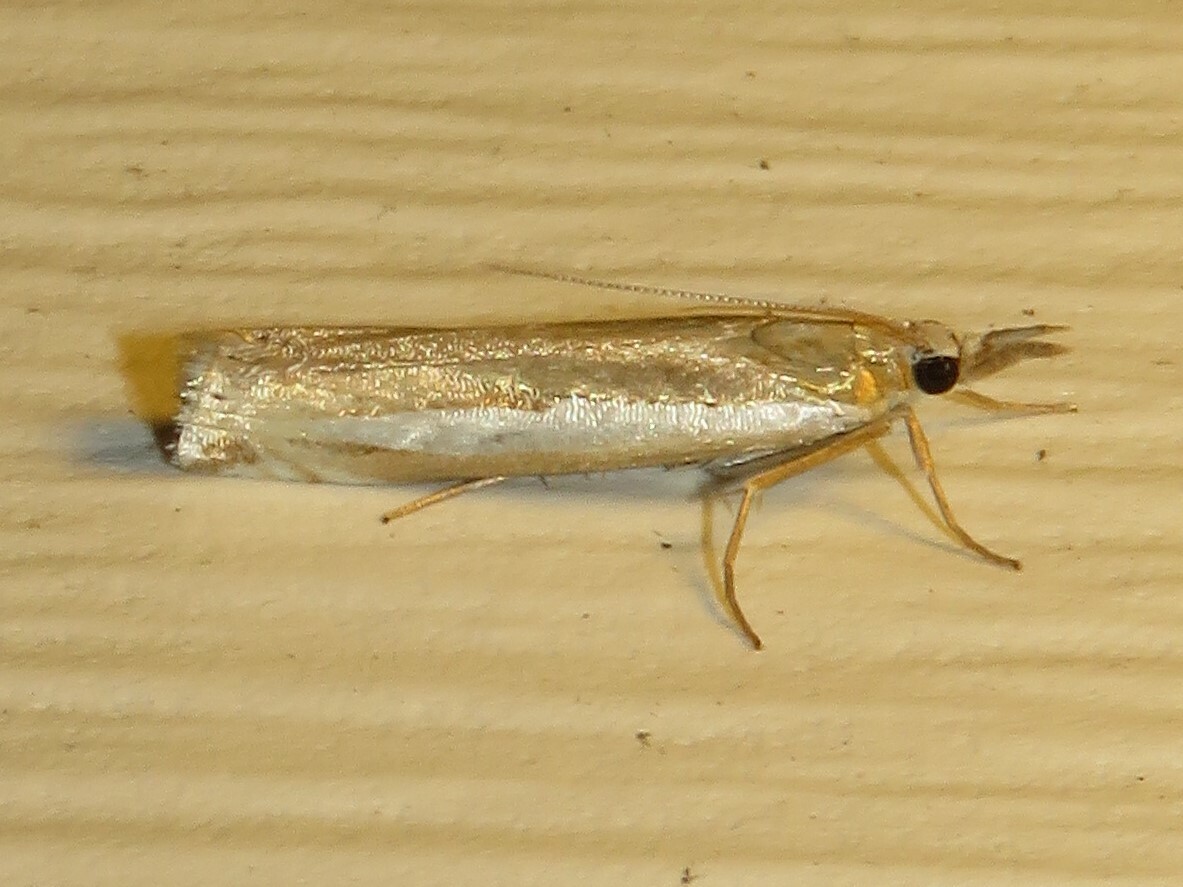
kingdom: Animalia
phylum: Arthropoda
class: Insecta
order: Lepidoptera
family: Crambidae
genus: Crambus
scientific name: Crambus praefectellus
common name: Common grass-veneer
